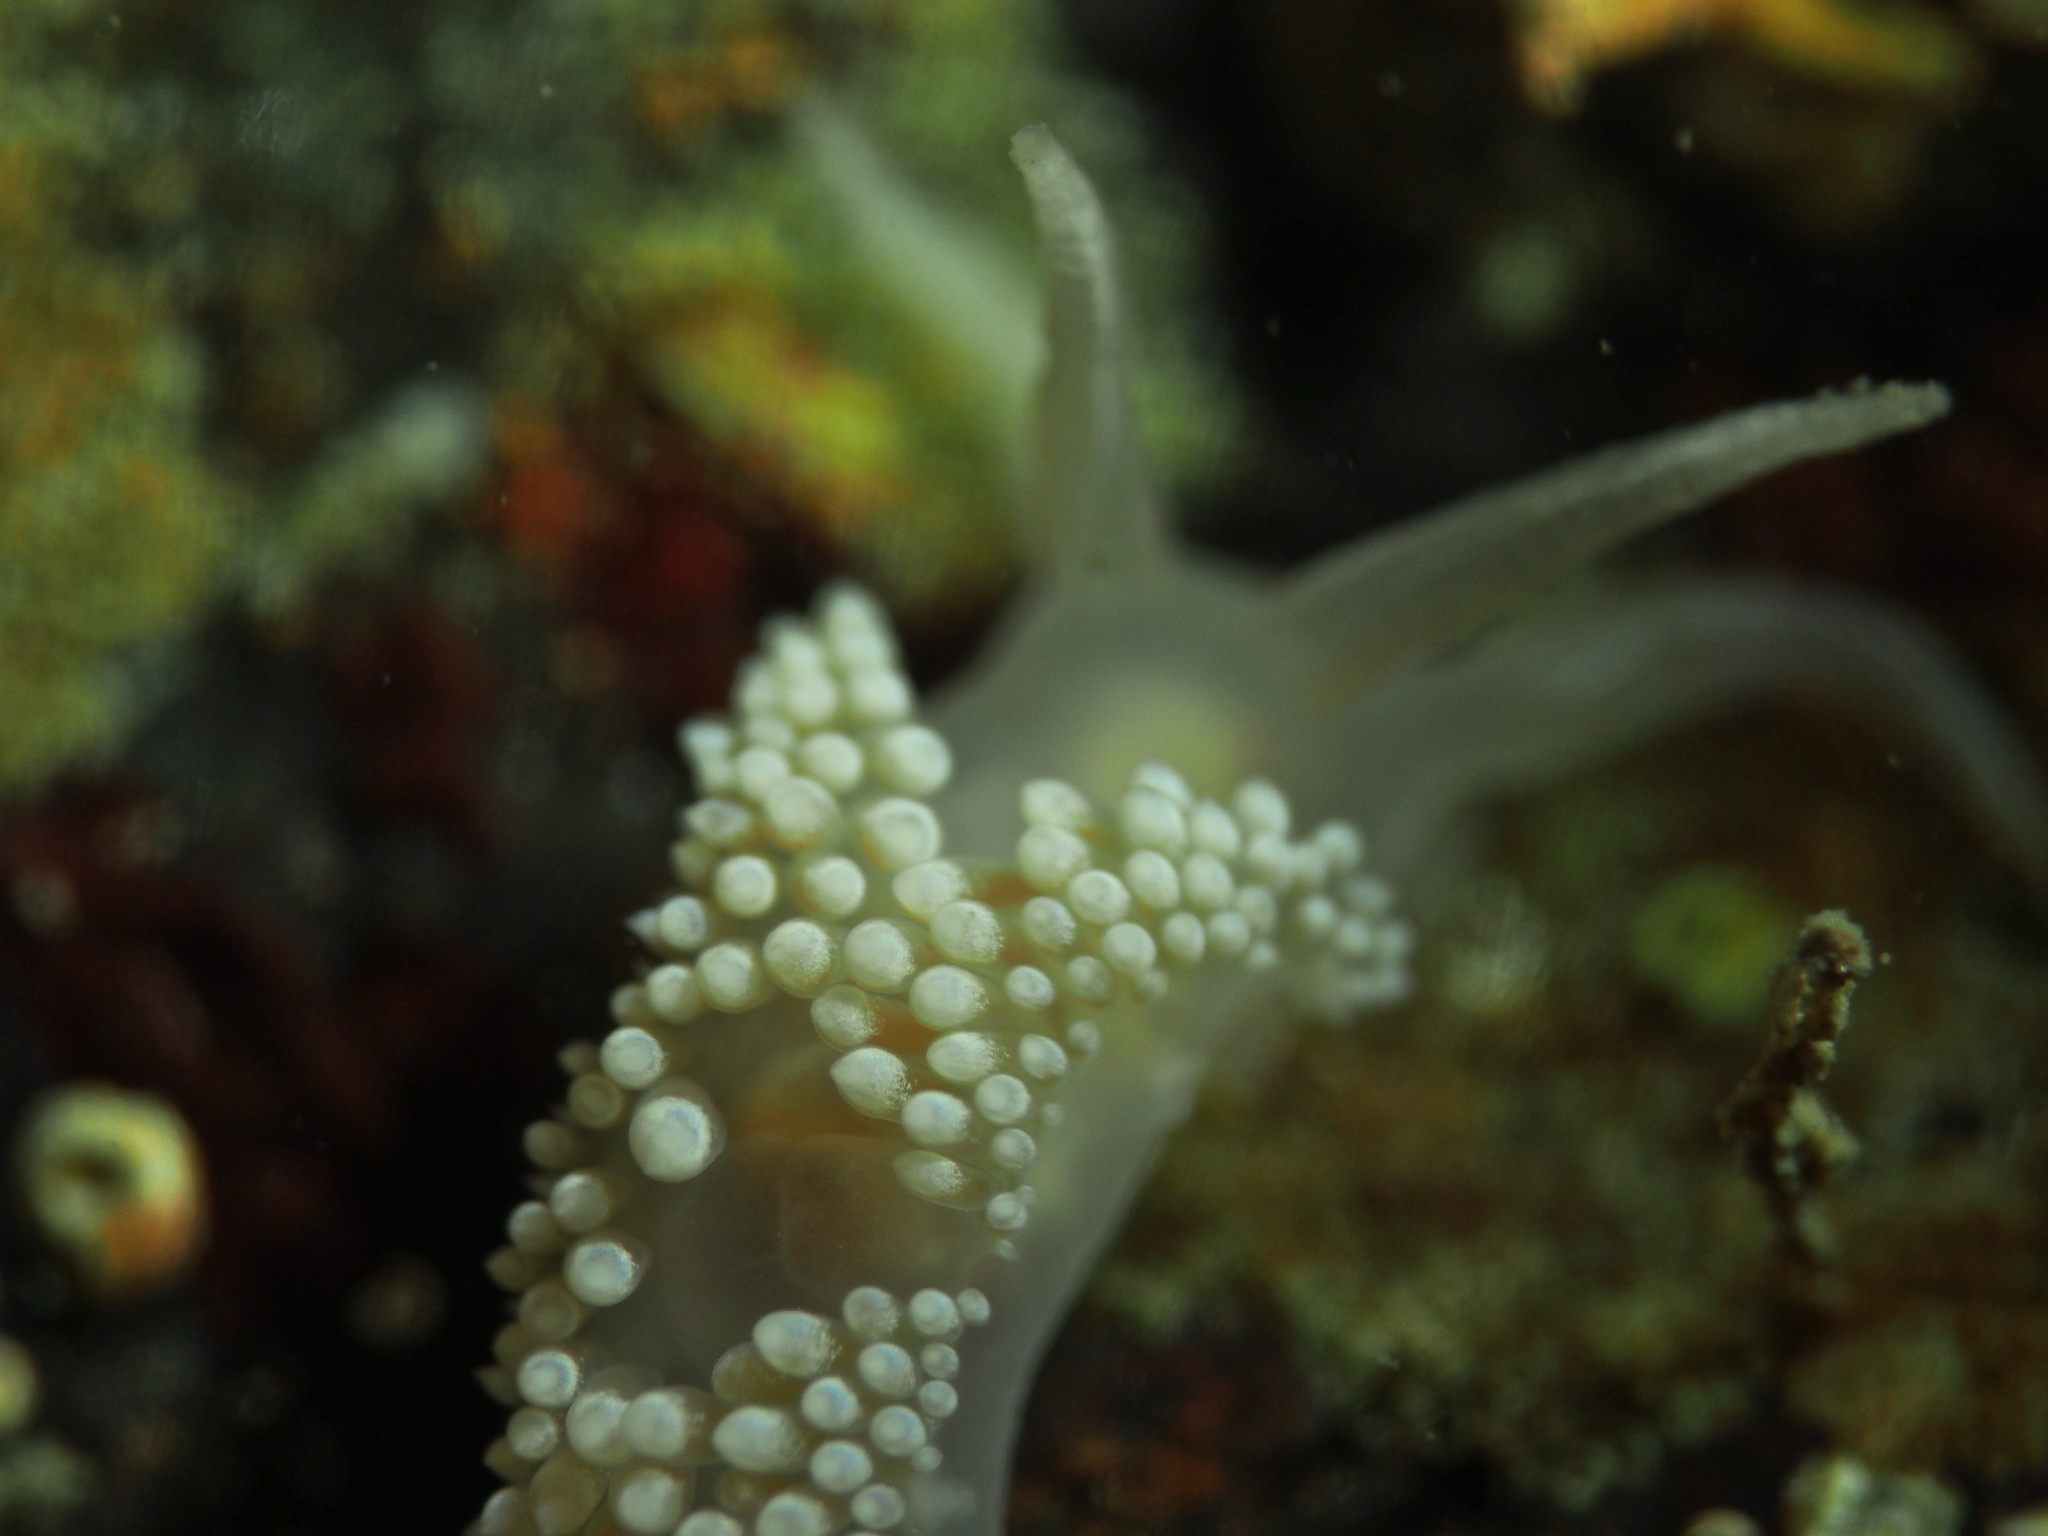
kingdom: Animalia
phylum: Mollusca
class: Gastropoda
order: Nudibranchia
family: Coryphellidae
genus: Coryphella
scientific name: Coryphella verrucosa
